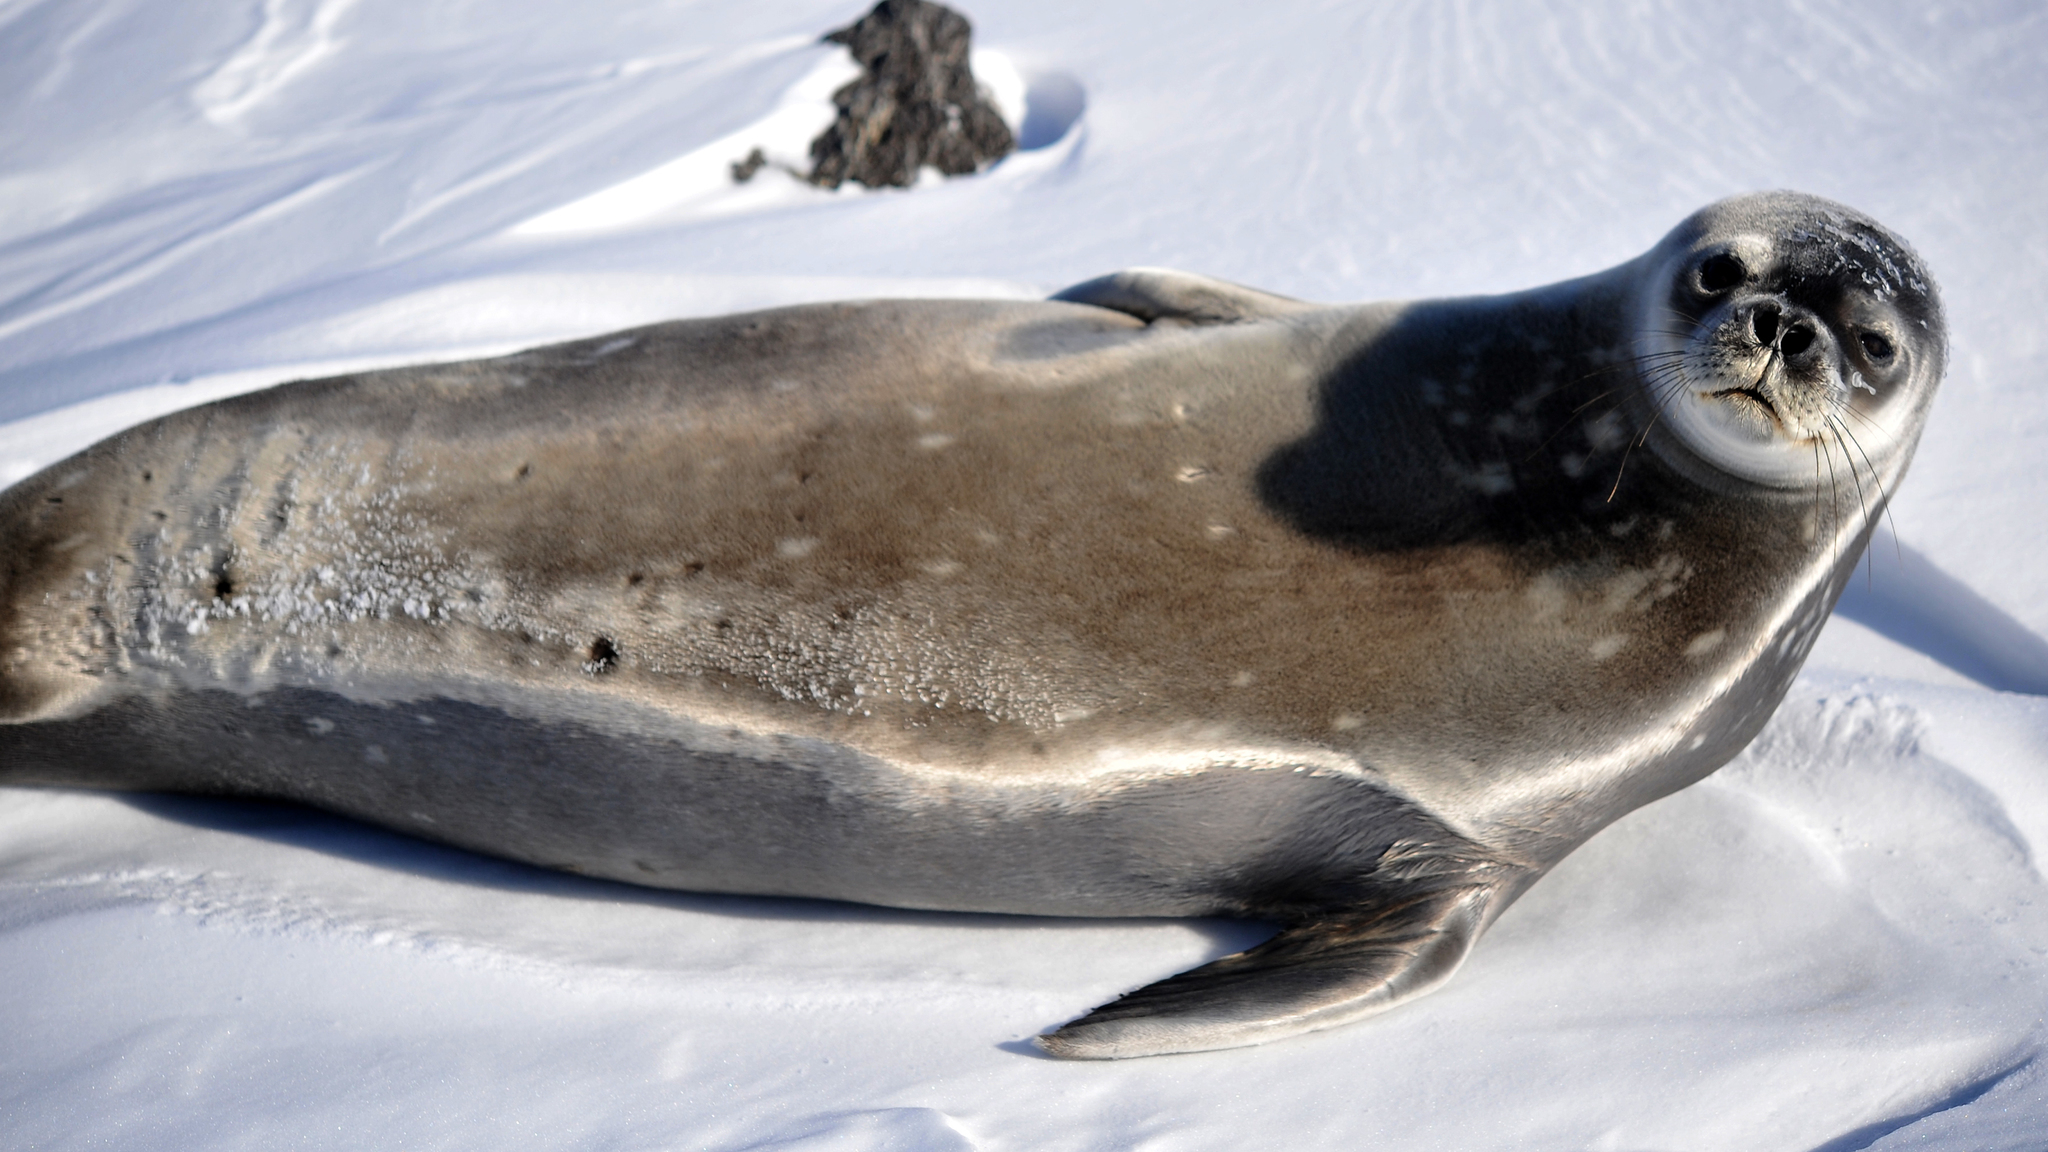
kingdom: Animalia
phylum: Chordata
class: Mammalia
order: Carnivora
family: Phocidae
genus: Leptonychotes
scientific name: Leptonychotes weddellii
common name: Weddell seal
